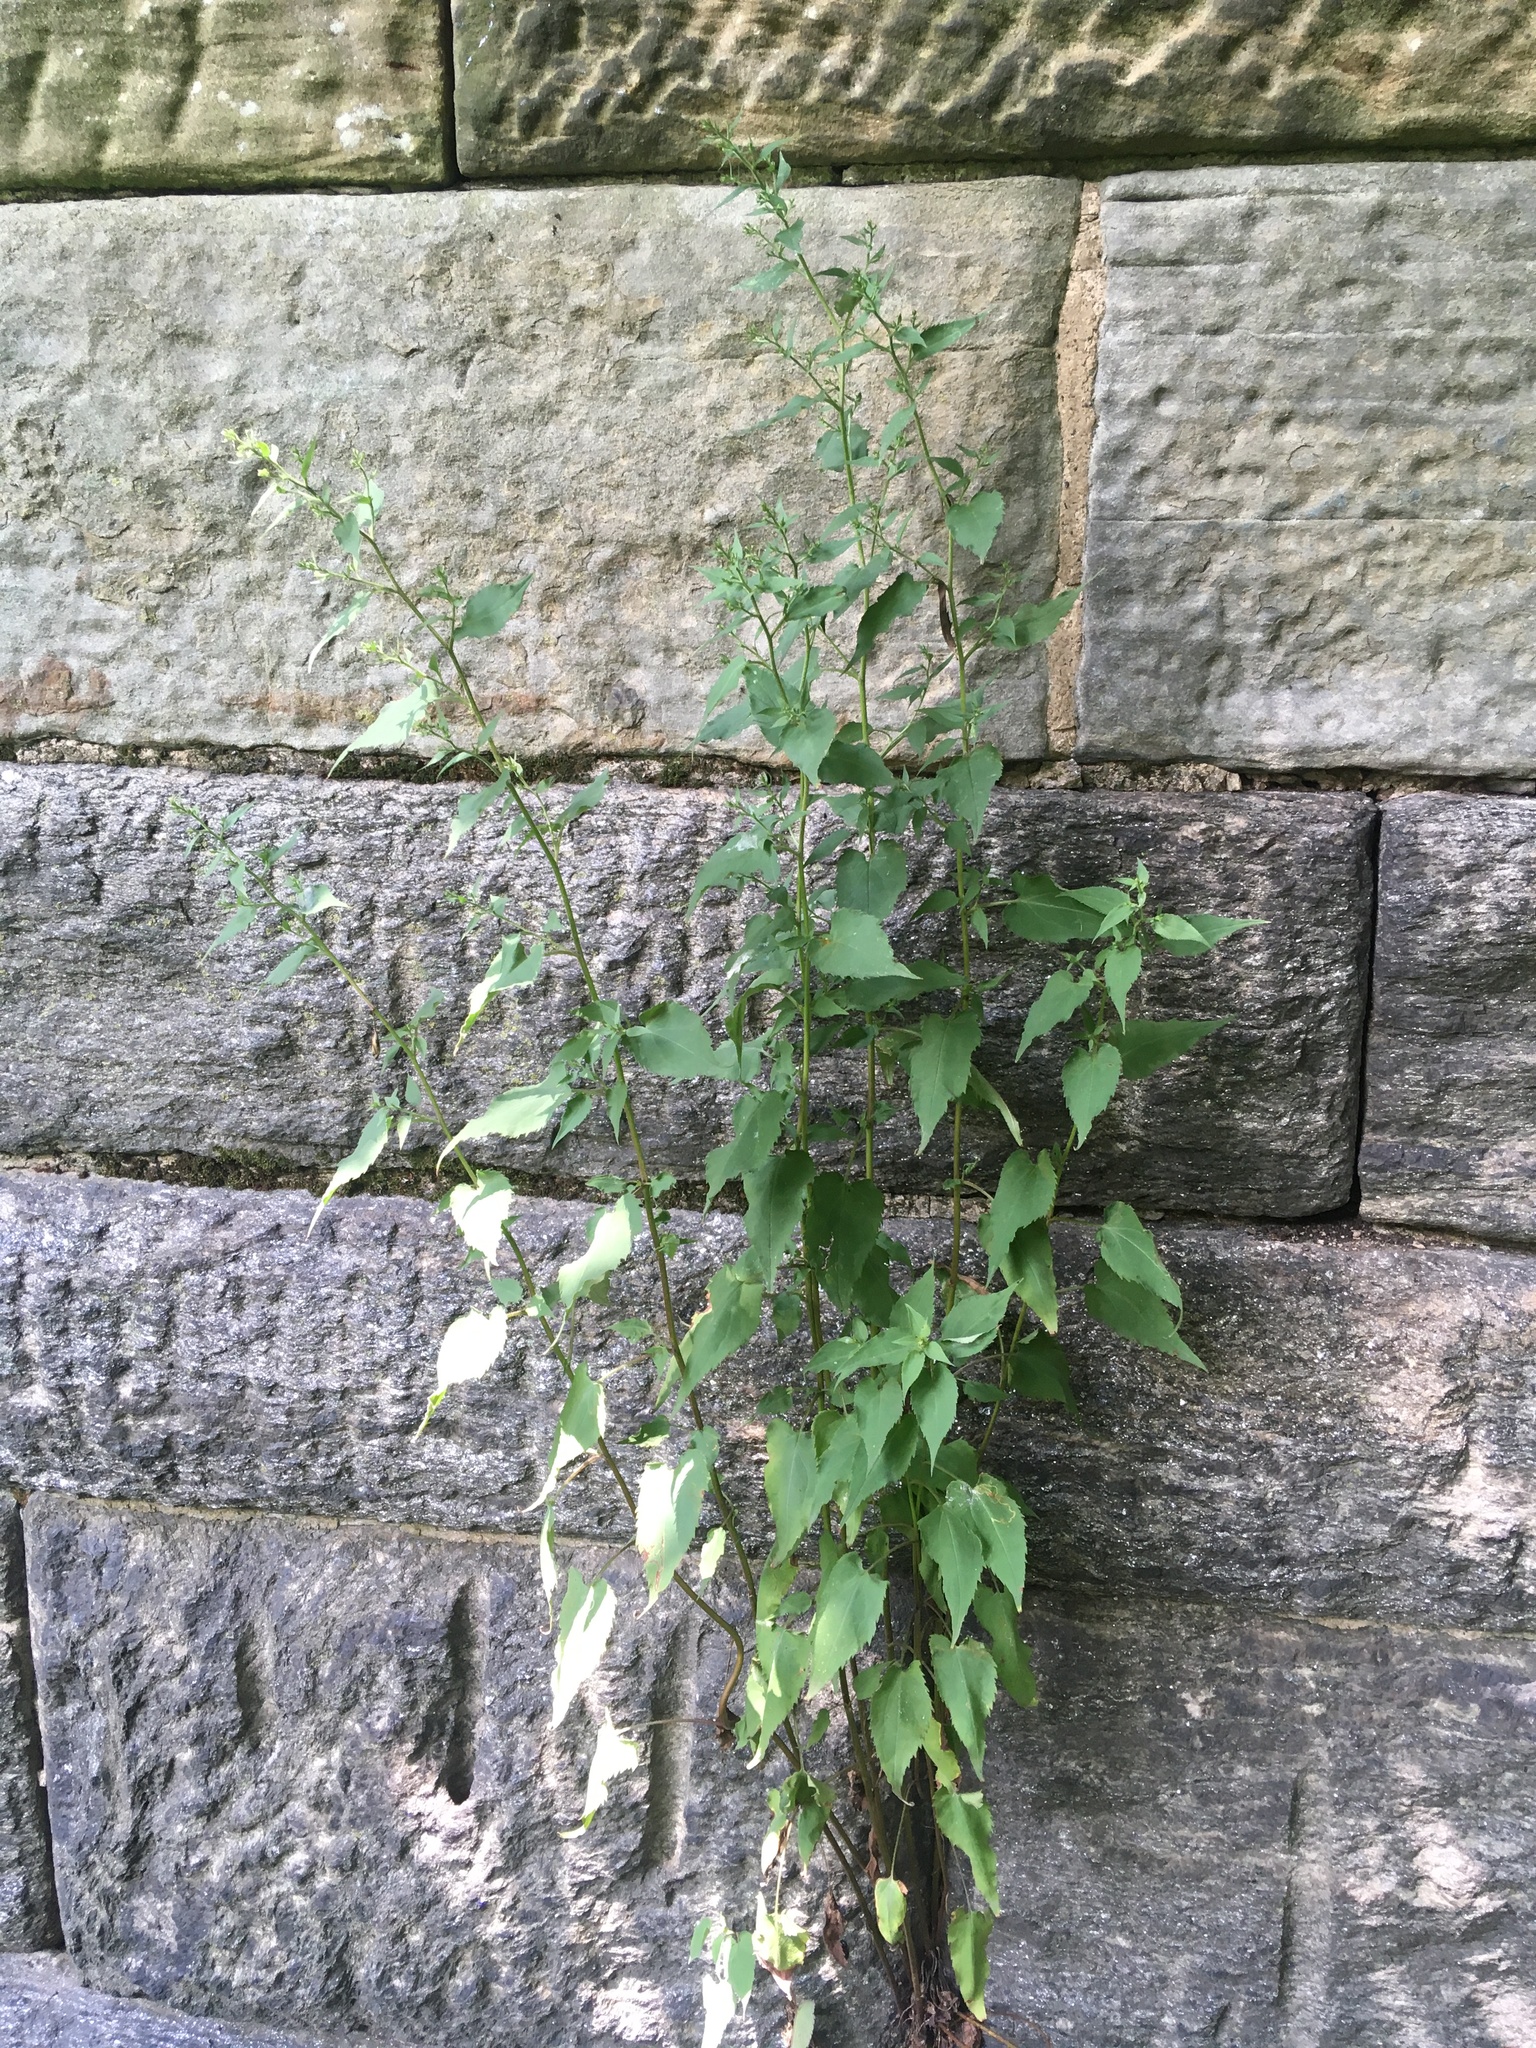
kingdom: Plantae
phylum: Tracheophyta
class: Magnoliopsida
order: Asterales
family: Asteraceae
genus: Symphyotrichum
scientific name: Symphyotrichum cordifolium
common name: Beeweed
